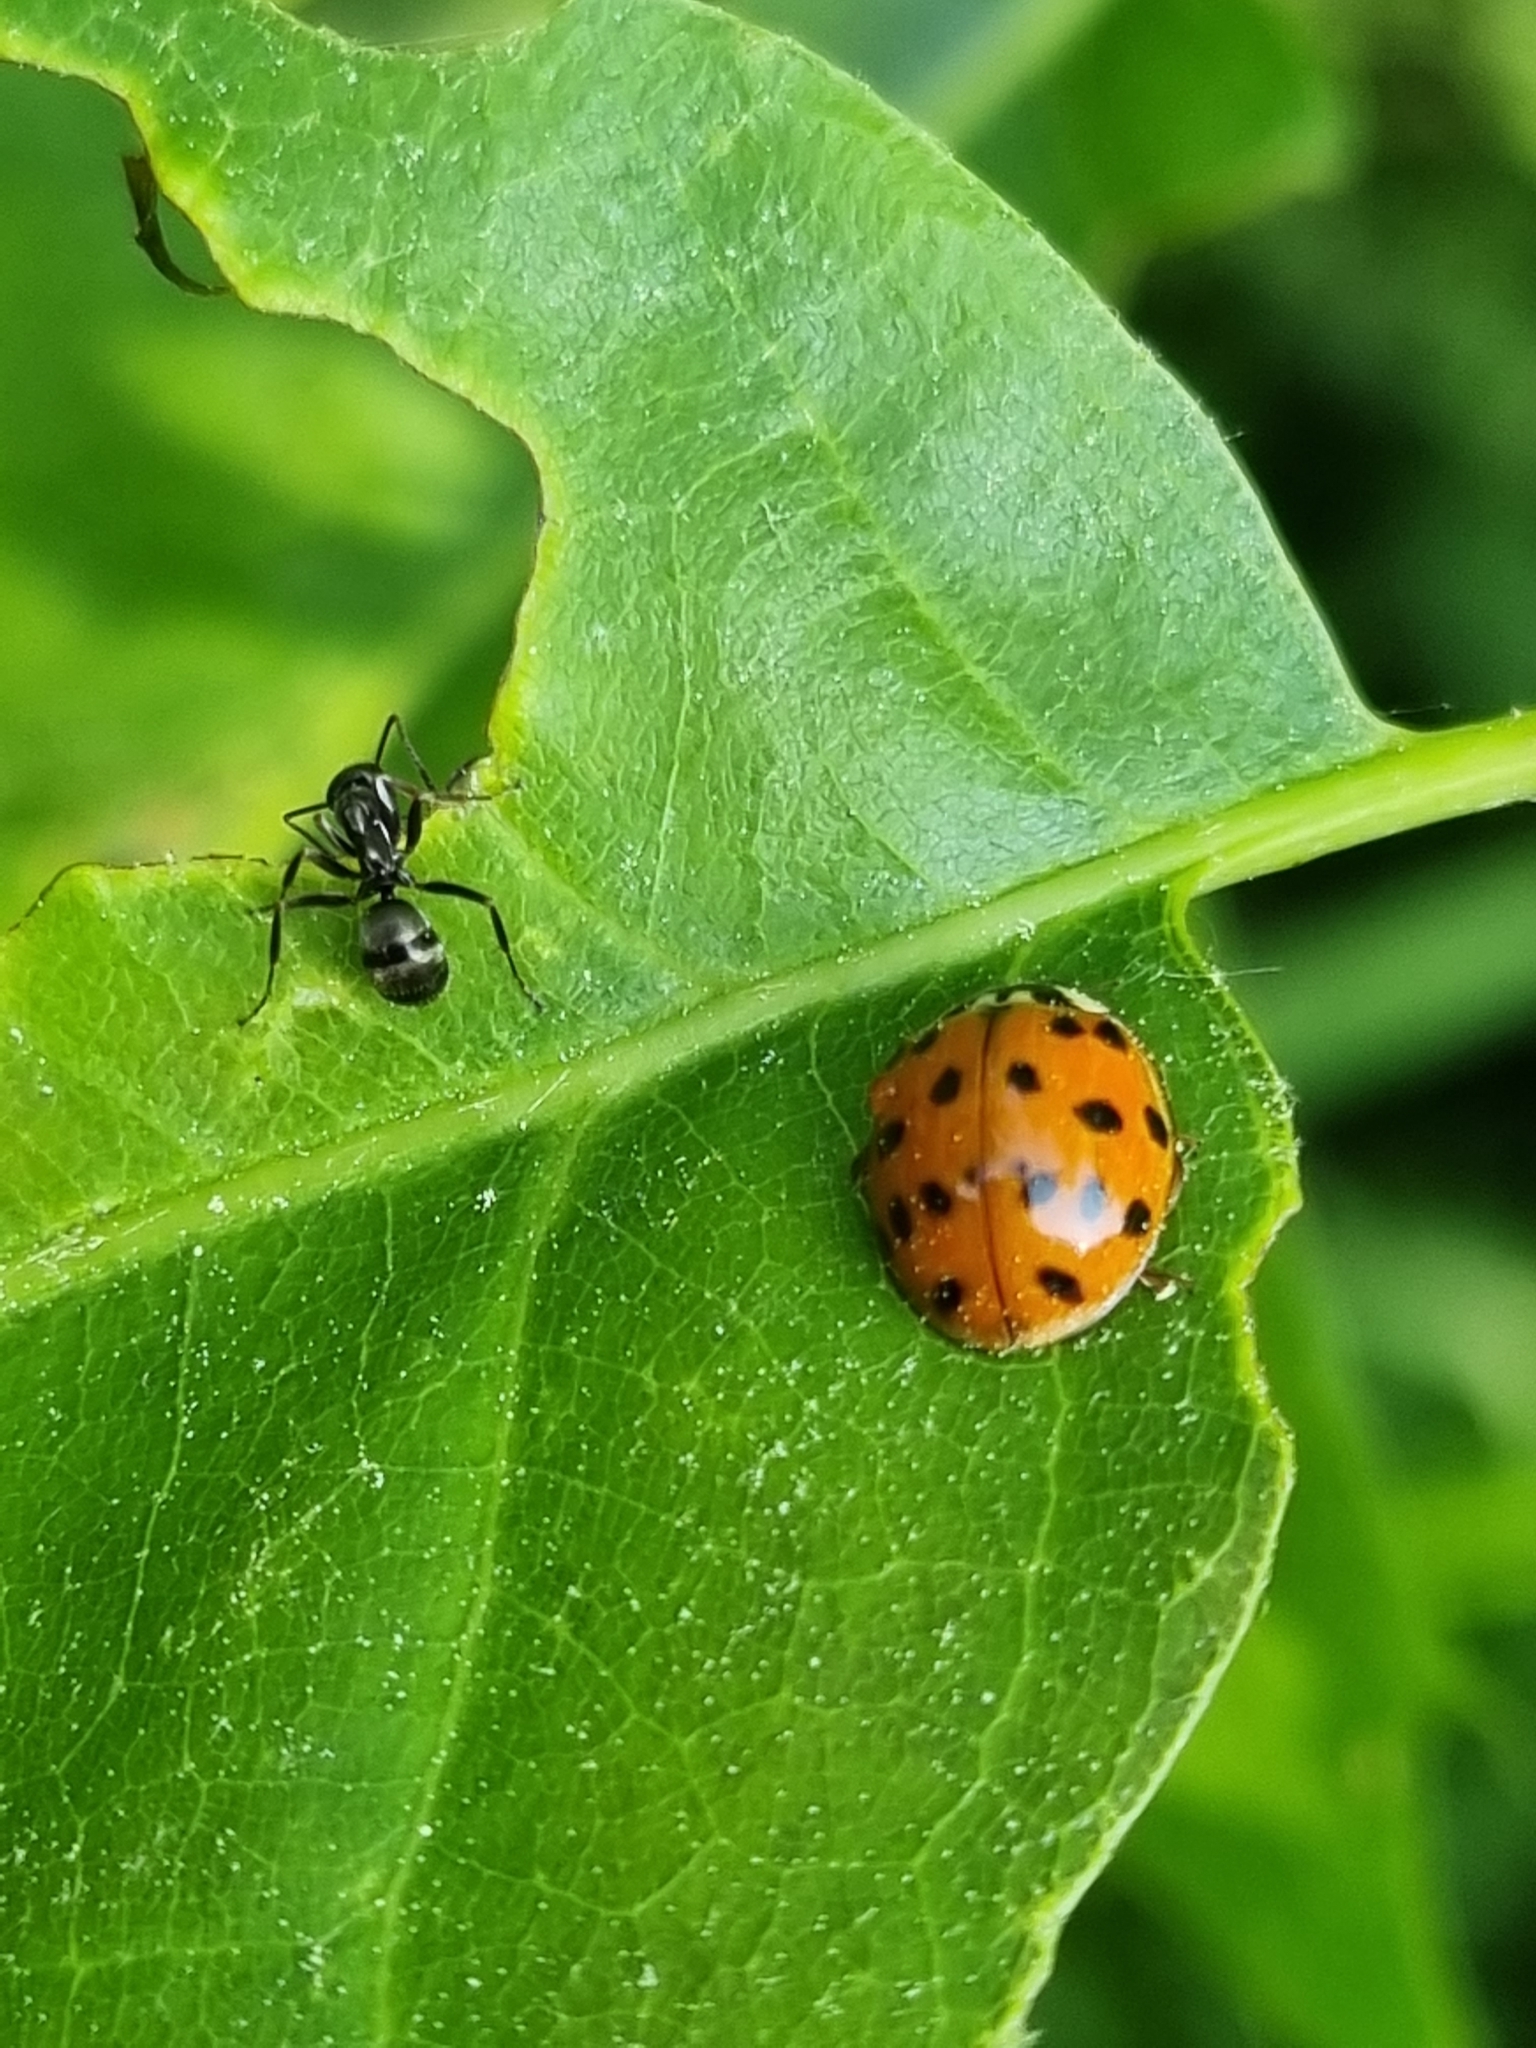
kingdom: Animalia
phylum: Arthropoda
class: Insecta
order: Coleoptera
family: Coccinellidae
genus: Harmonia
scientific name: Harmonia axyridis
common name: Harlequin ladybird
